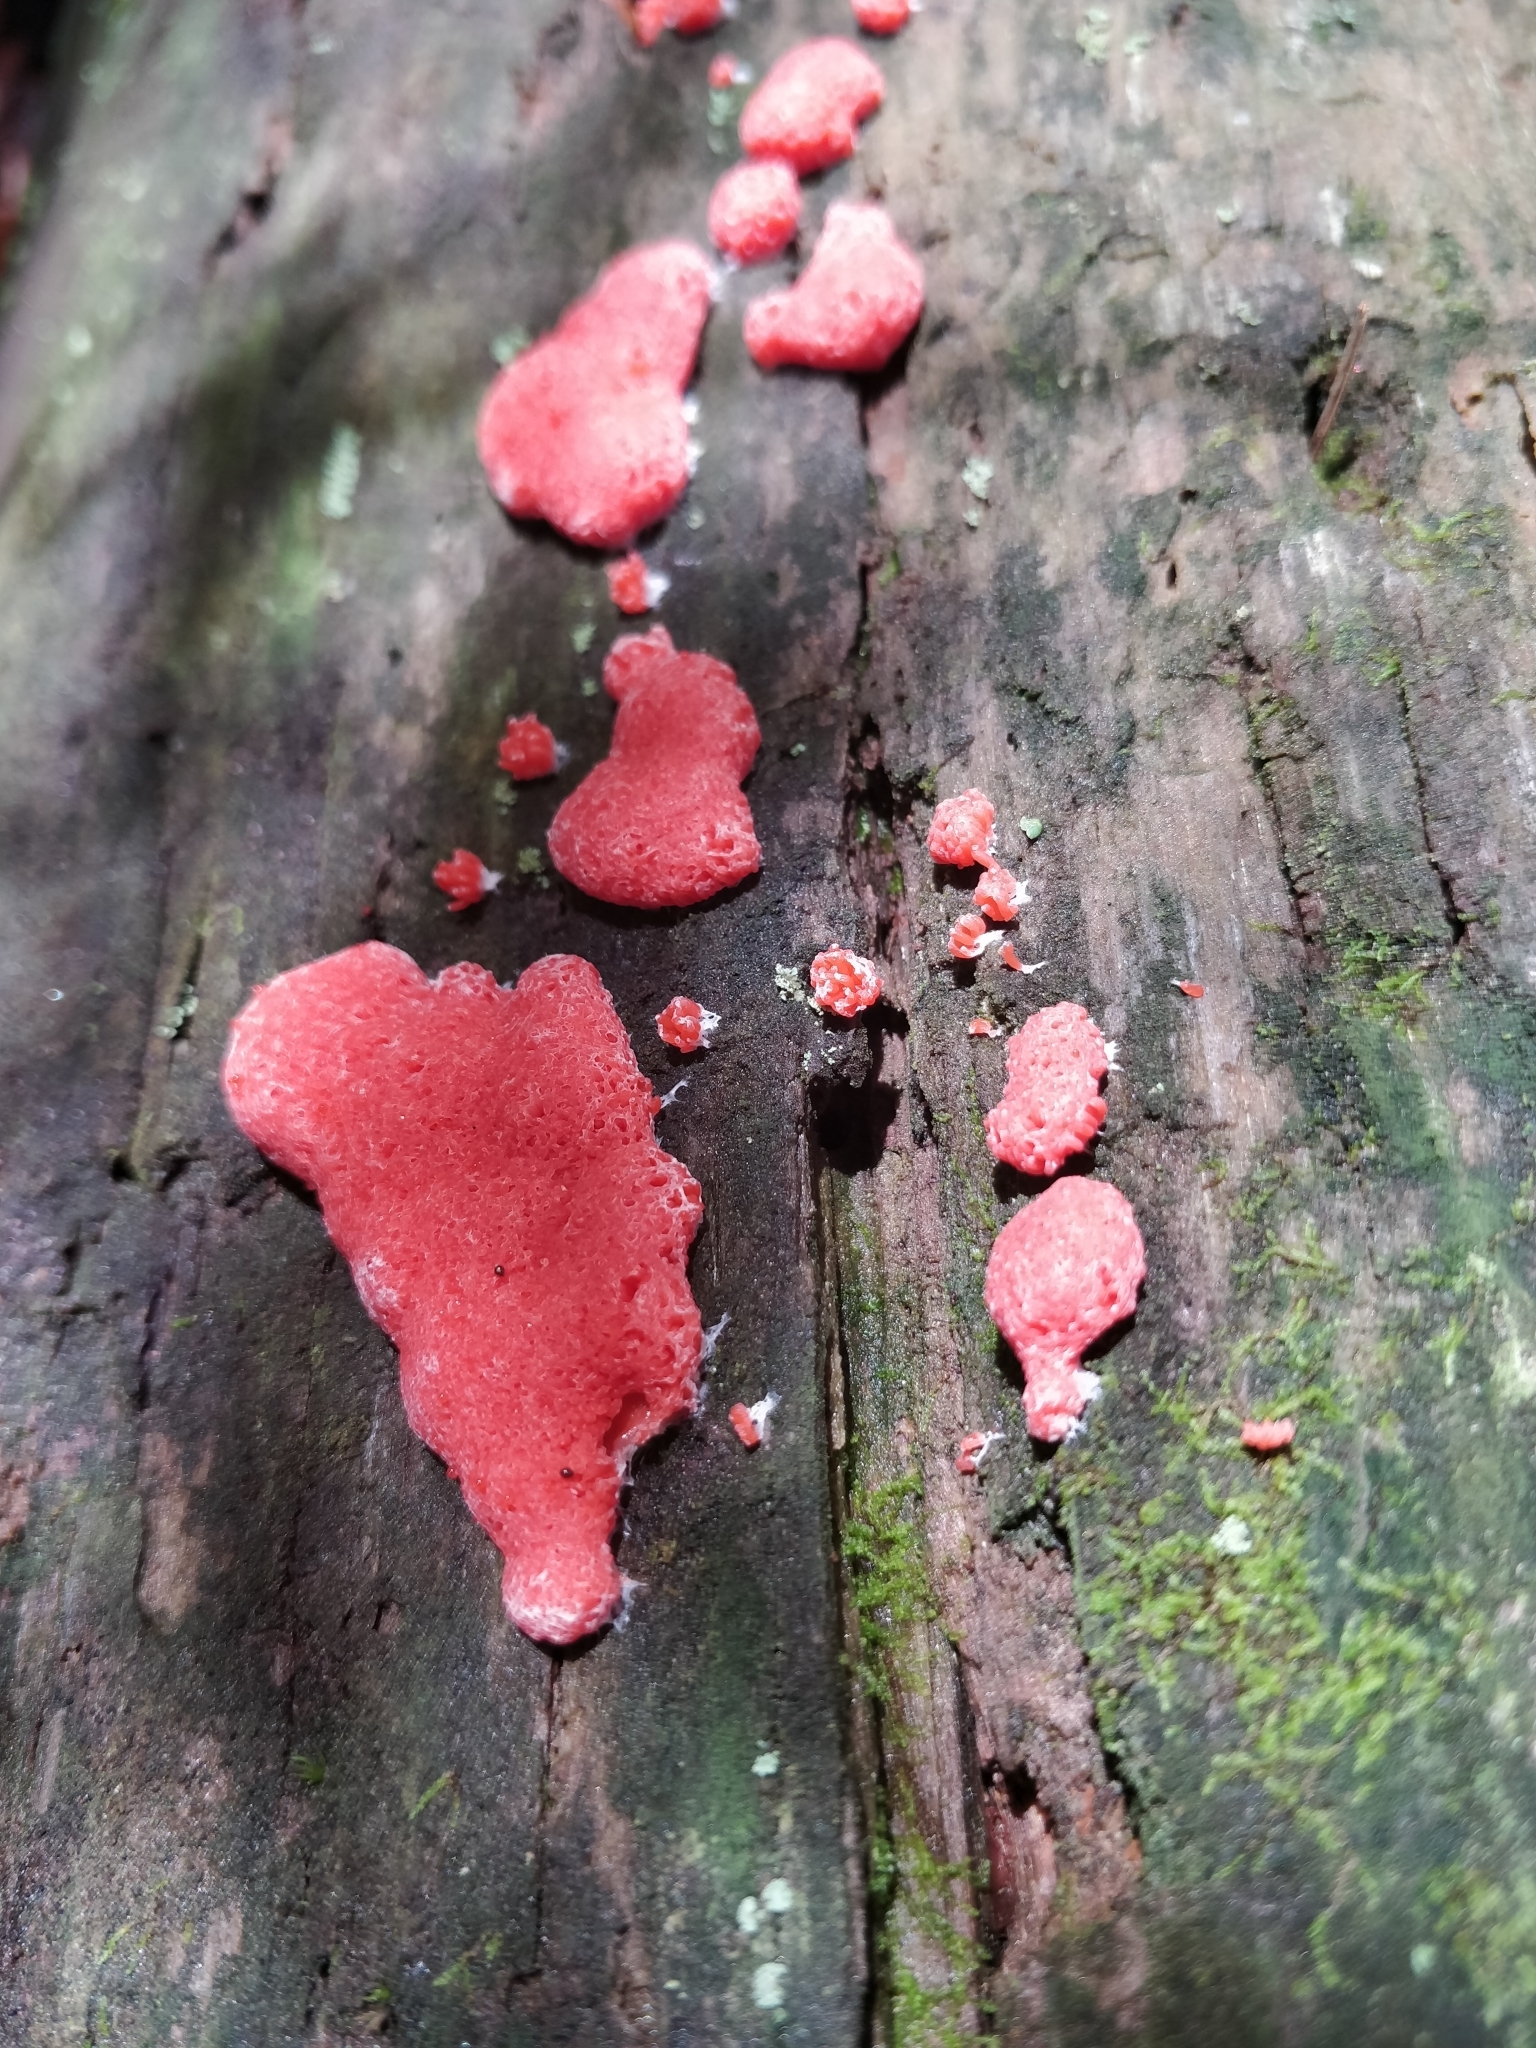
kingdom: Protozoa
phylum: Mycetozoa
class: Myxomycetes
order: Cribrariales
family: Tubiferaceae
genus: Tubifera
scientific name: Tubifera magna
